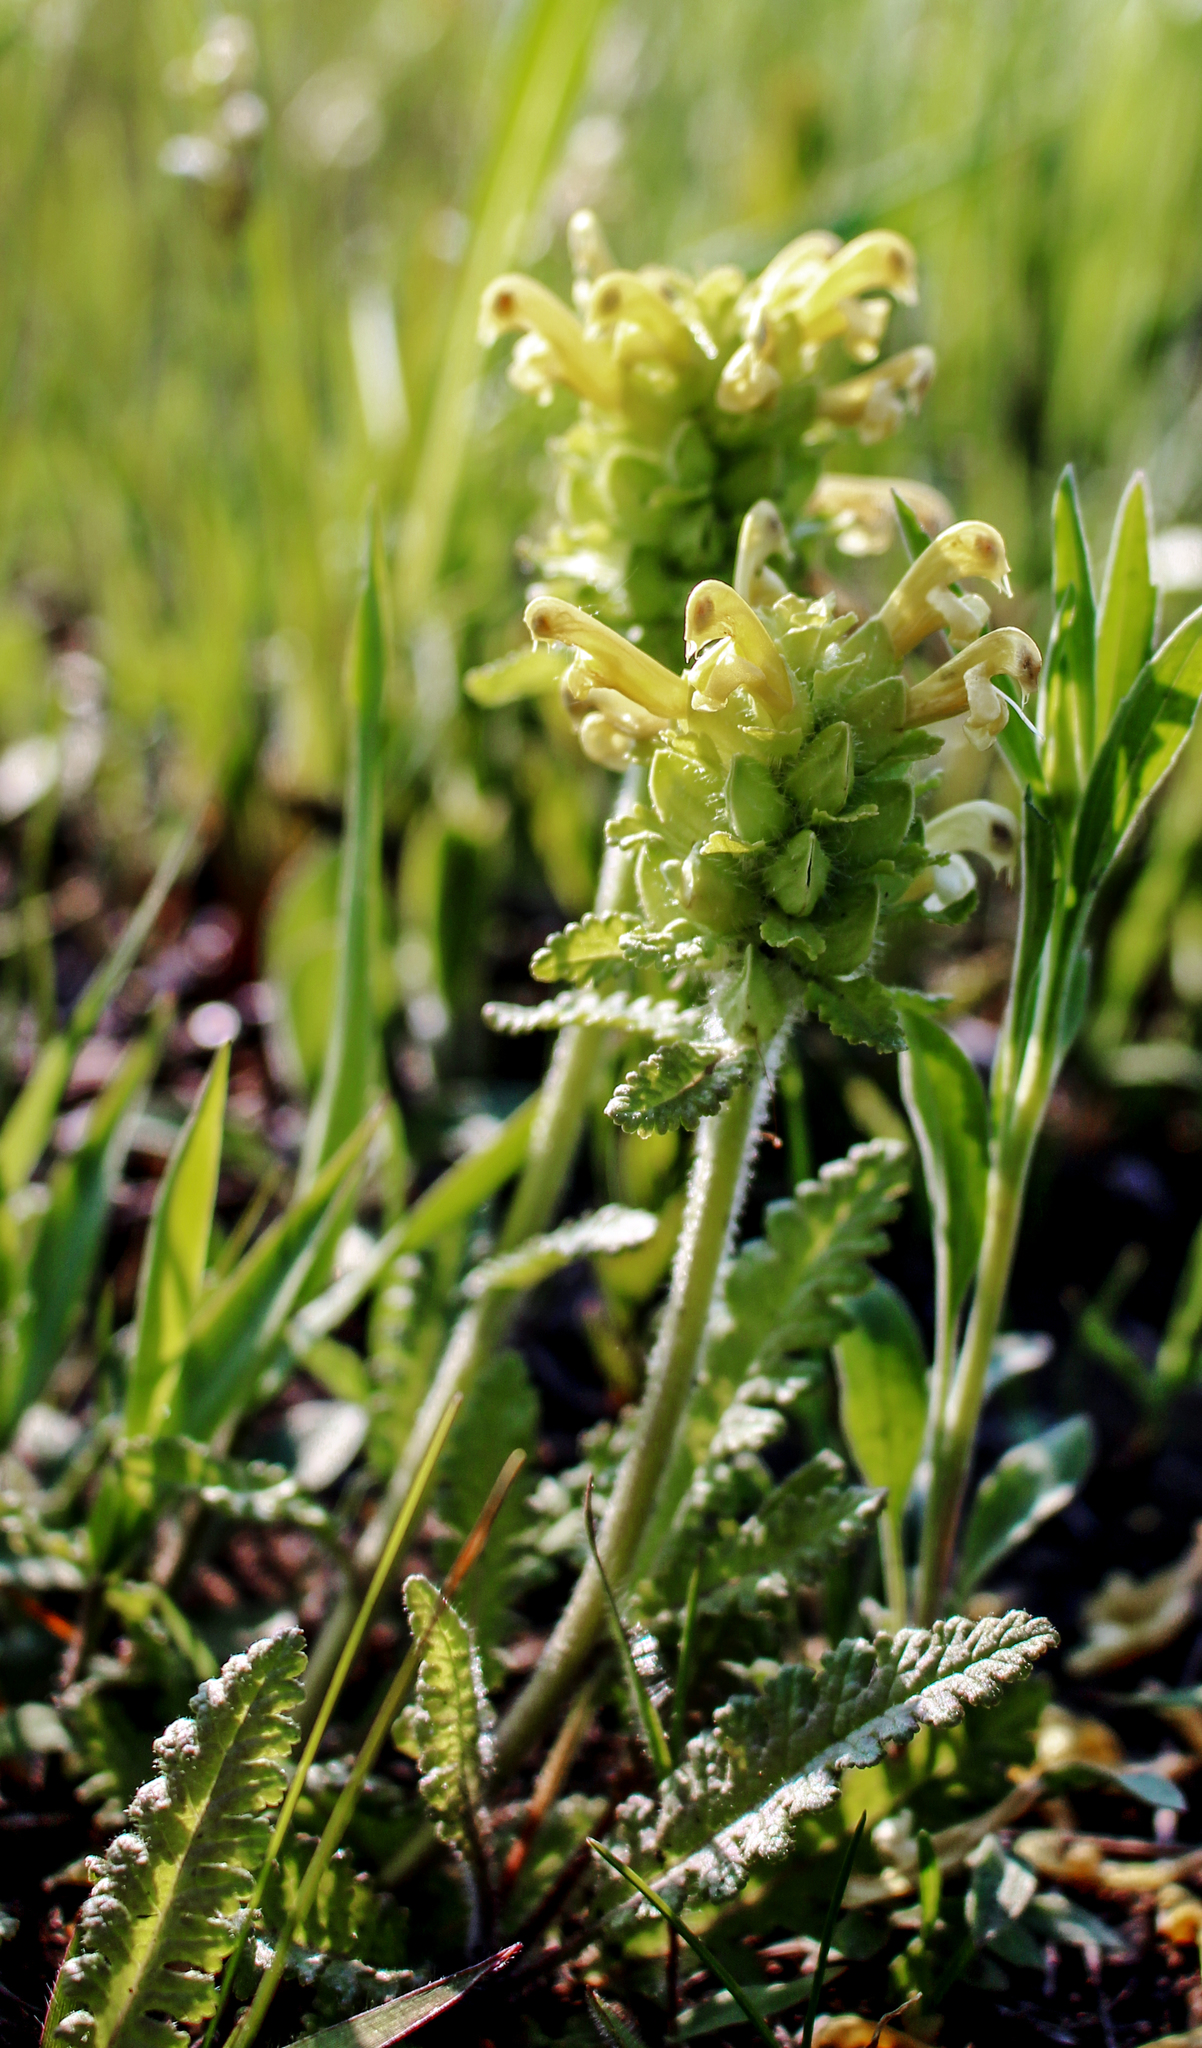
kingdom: Plantae
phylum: Tracheophyta
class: Magnoliopsida
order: Lamiales
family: Orobanchaceae
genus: Pedicularis
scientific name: Pedicularis canadensis
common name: Early lousewort
